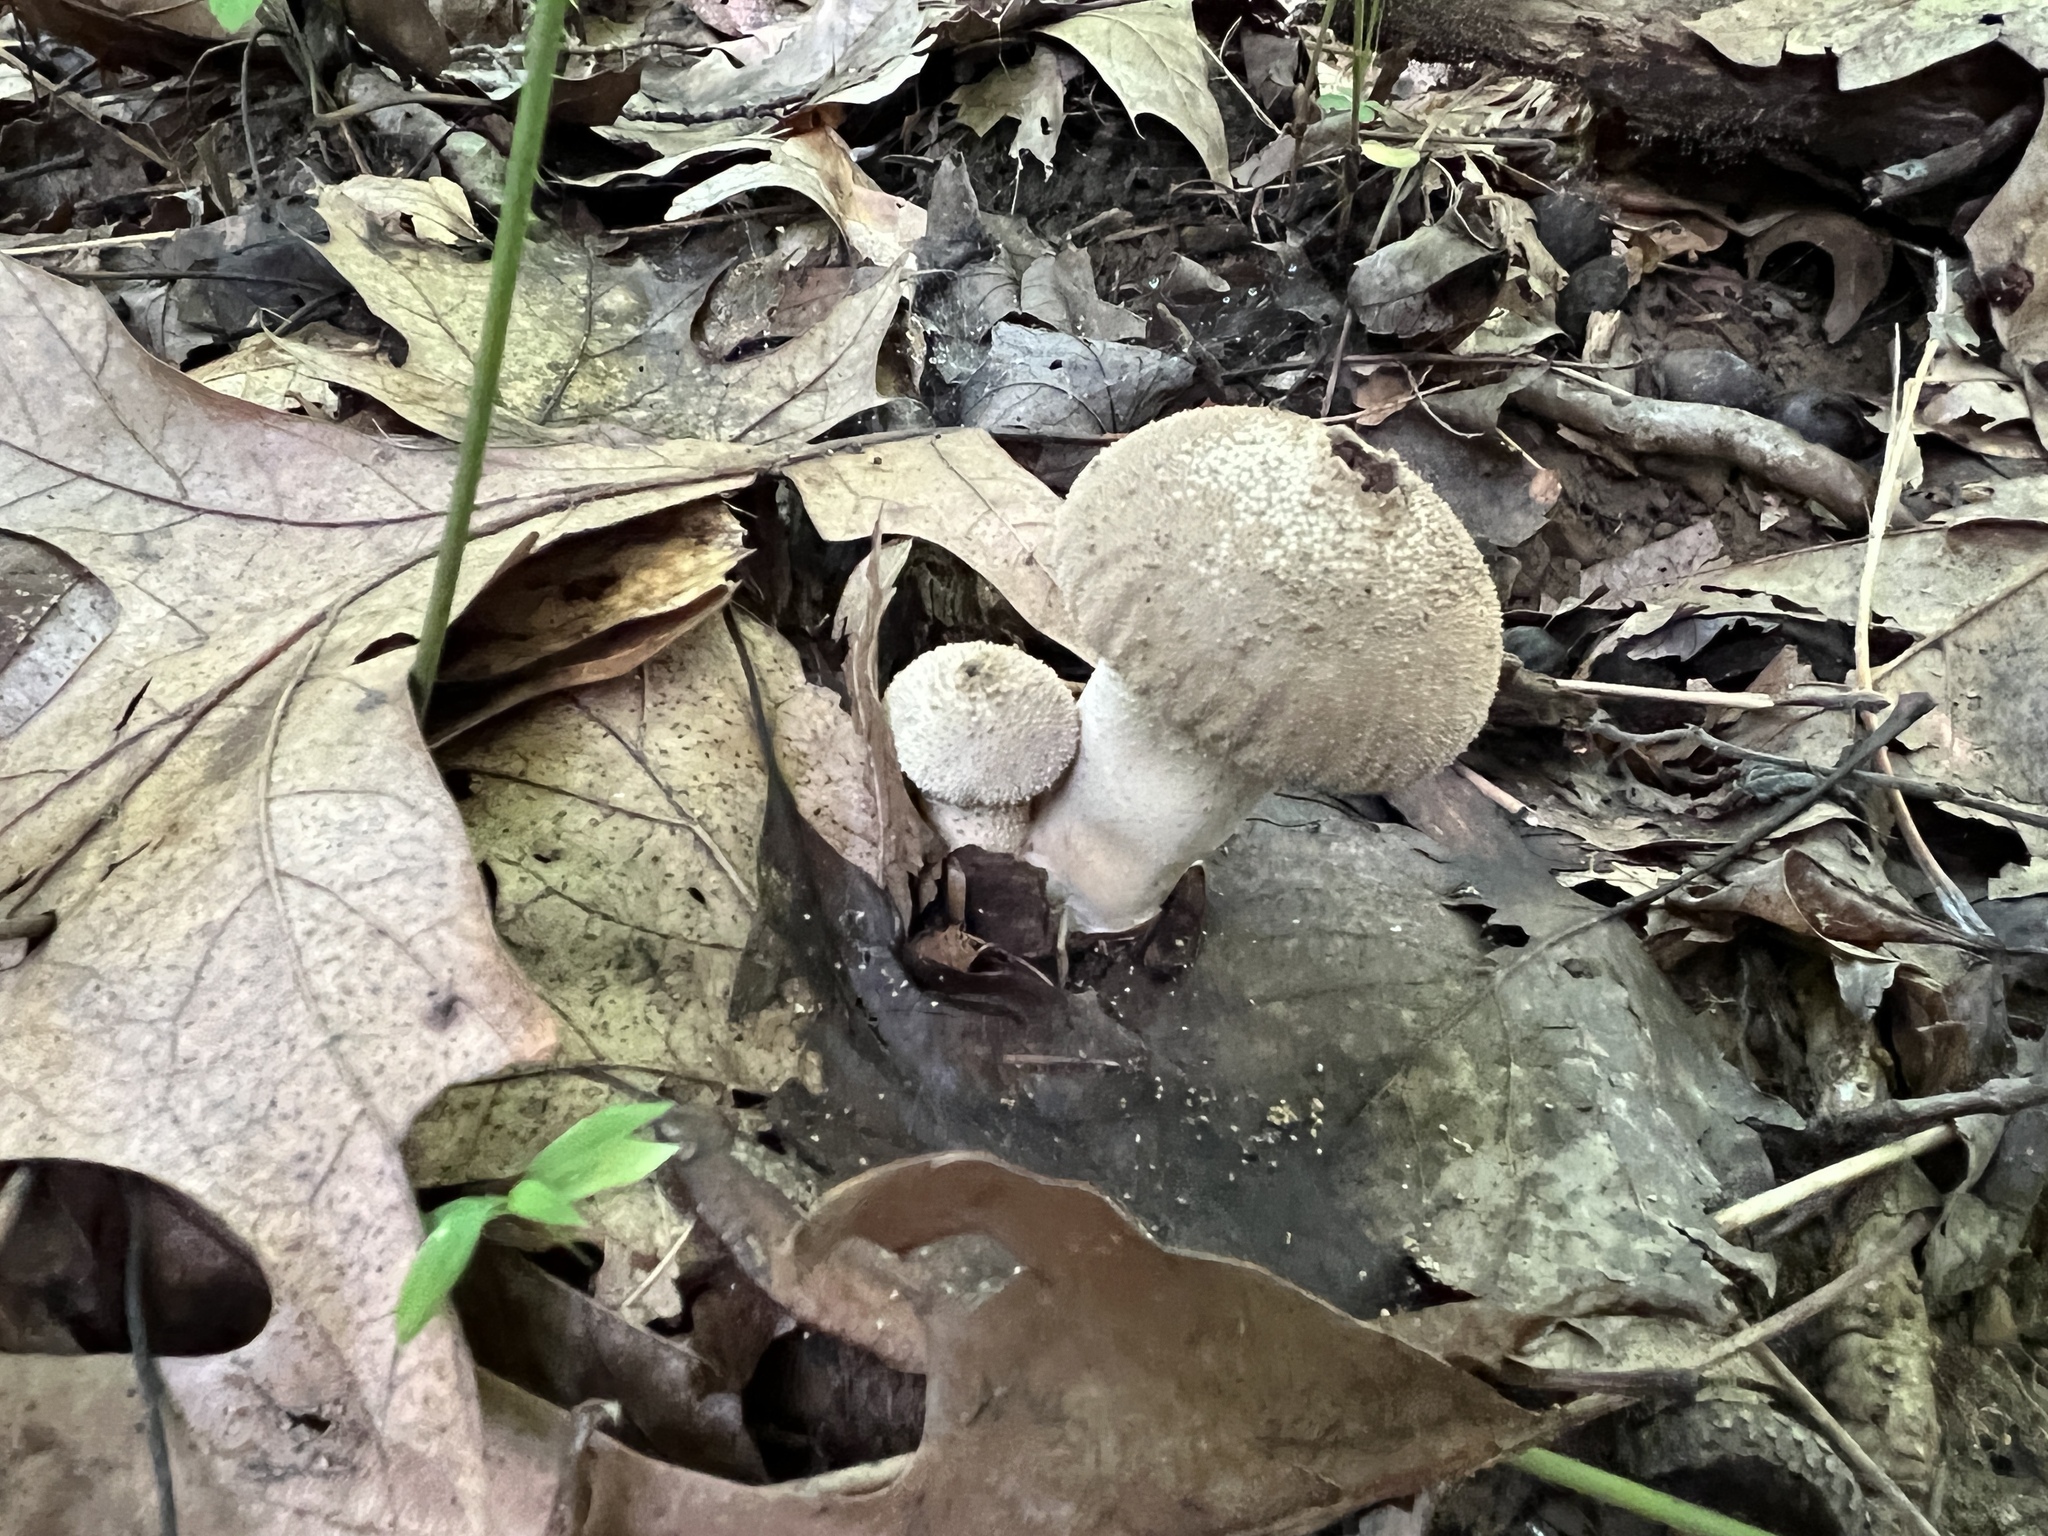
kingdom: Fungi
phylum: Basidiomycota
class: Agaricomycetes
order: Agaricales
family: Lycoperdaceae
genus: Lycoperdon
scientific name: Lycoperdon perlatum
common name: Common puffball
